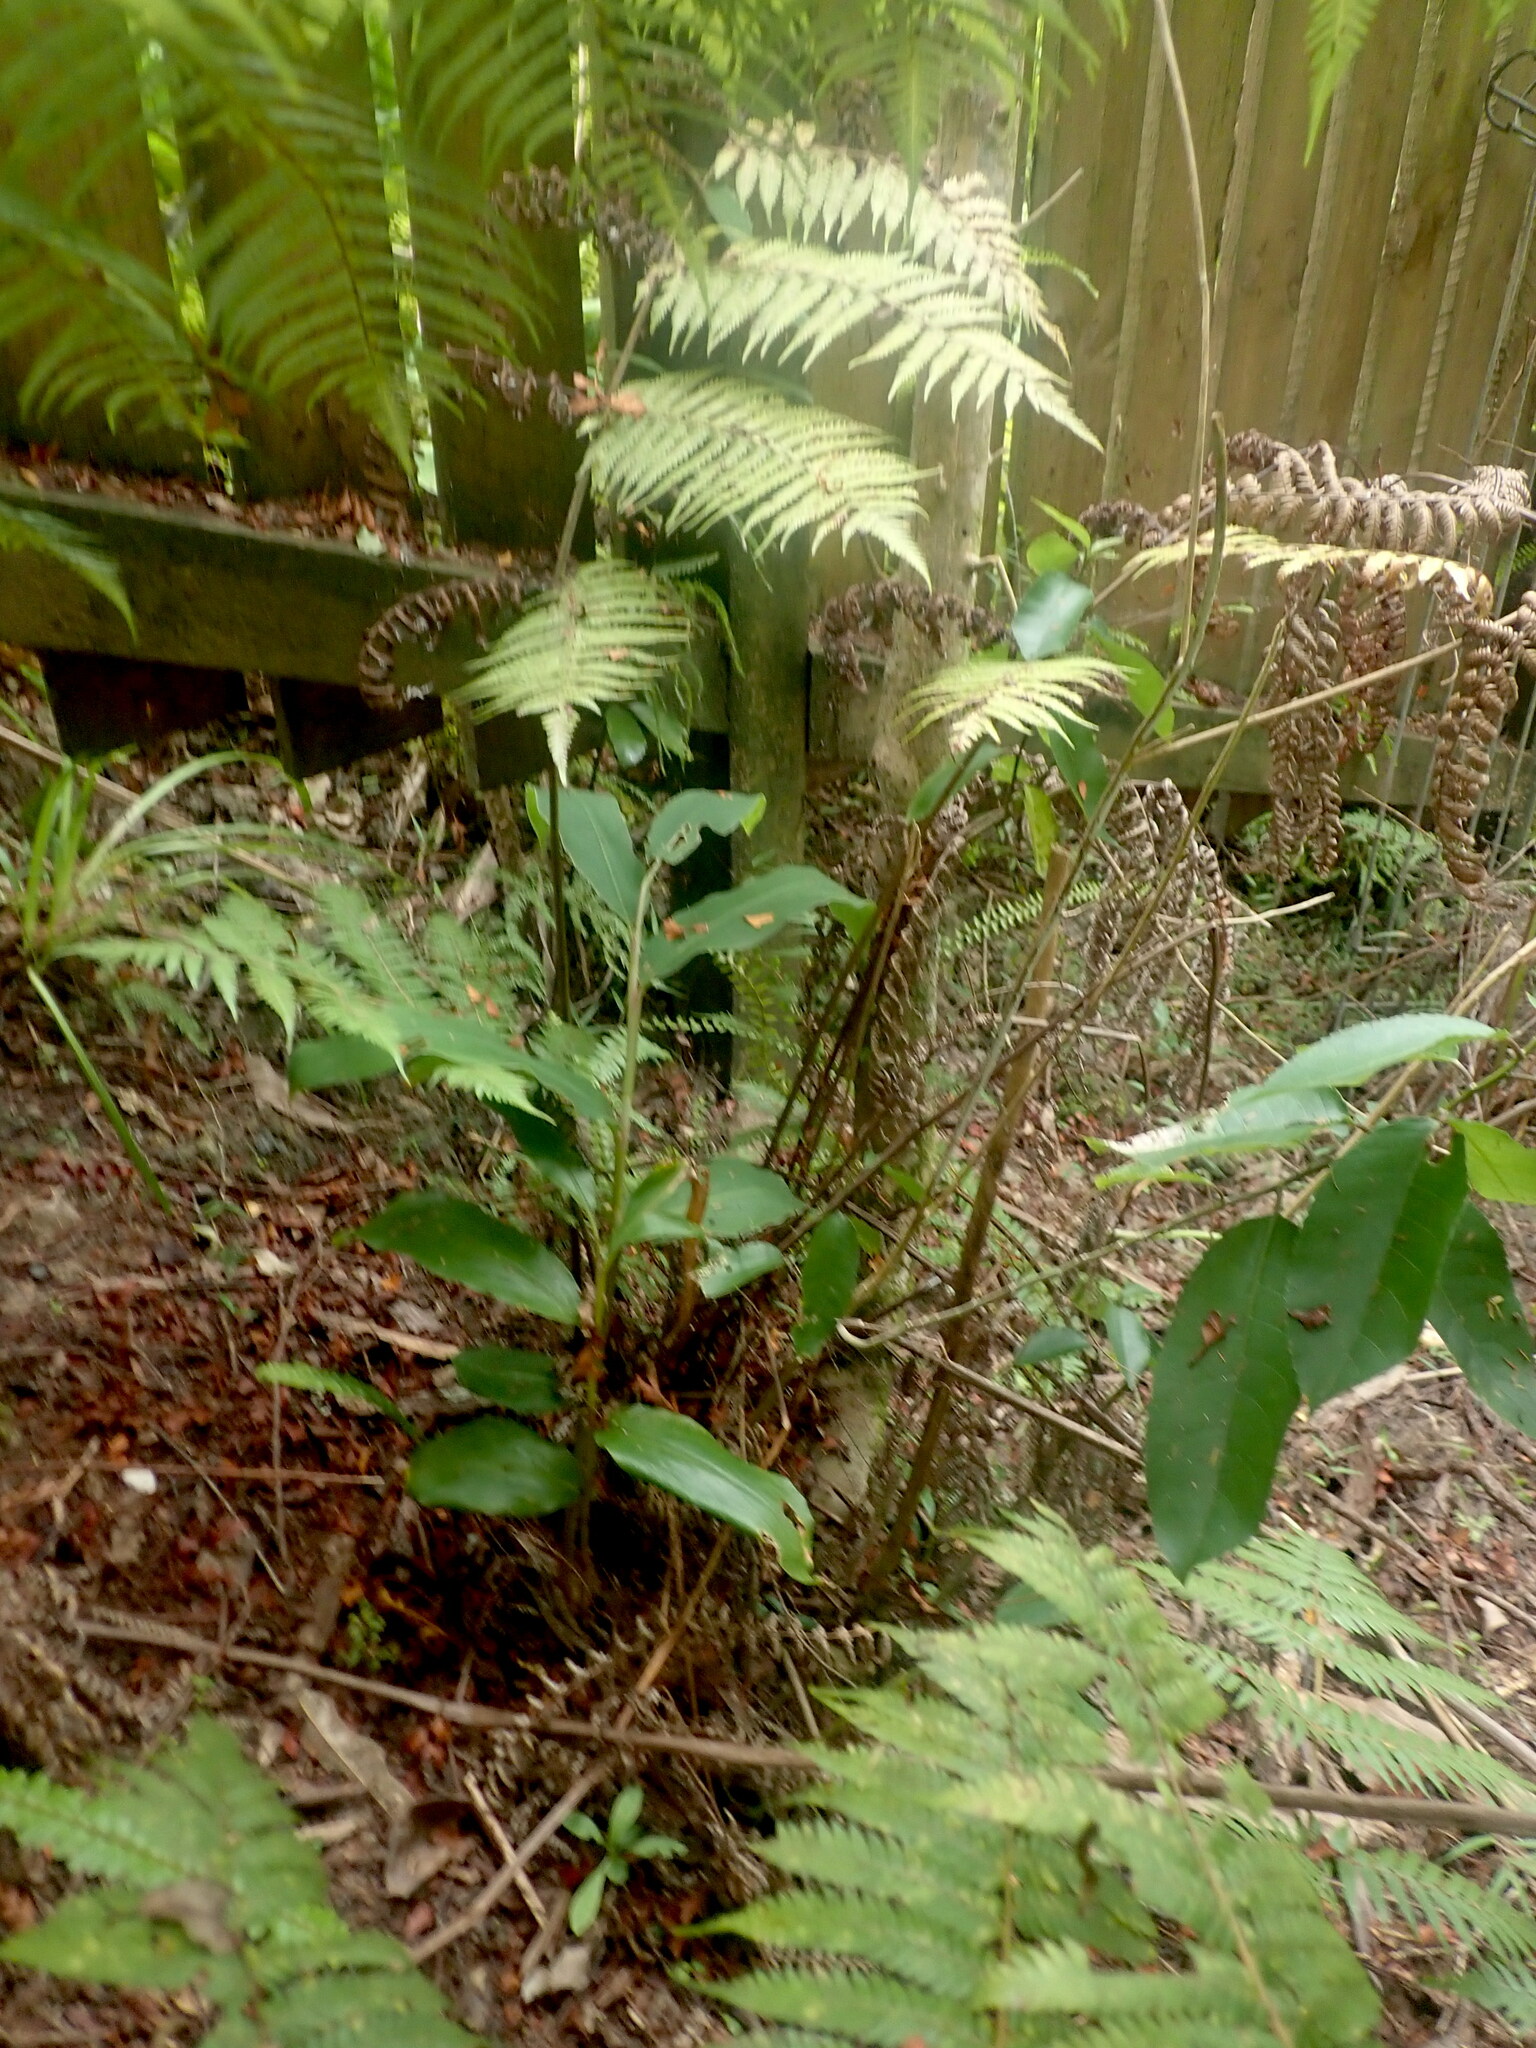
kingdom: Plantae
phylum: Tracheophyta
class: Polypodiopsida
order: Cyatheales
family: Cyatheaceae
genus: Alsophila
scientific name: Alsophila dealbata
